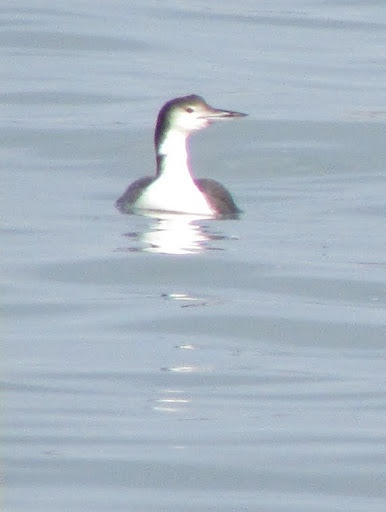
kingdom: Animalia
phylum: Chordata
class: Aves
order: Gaviiformes
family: Gaviidae
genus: Gavia
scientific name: Gavia immer
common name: Common loon
